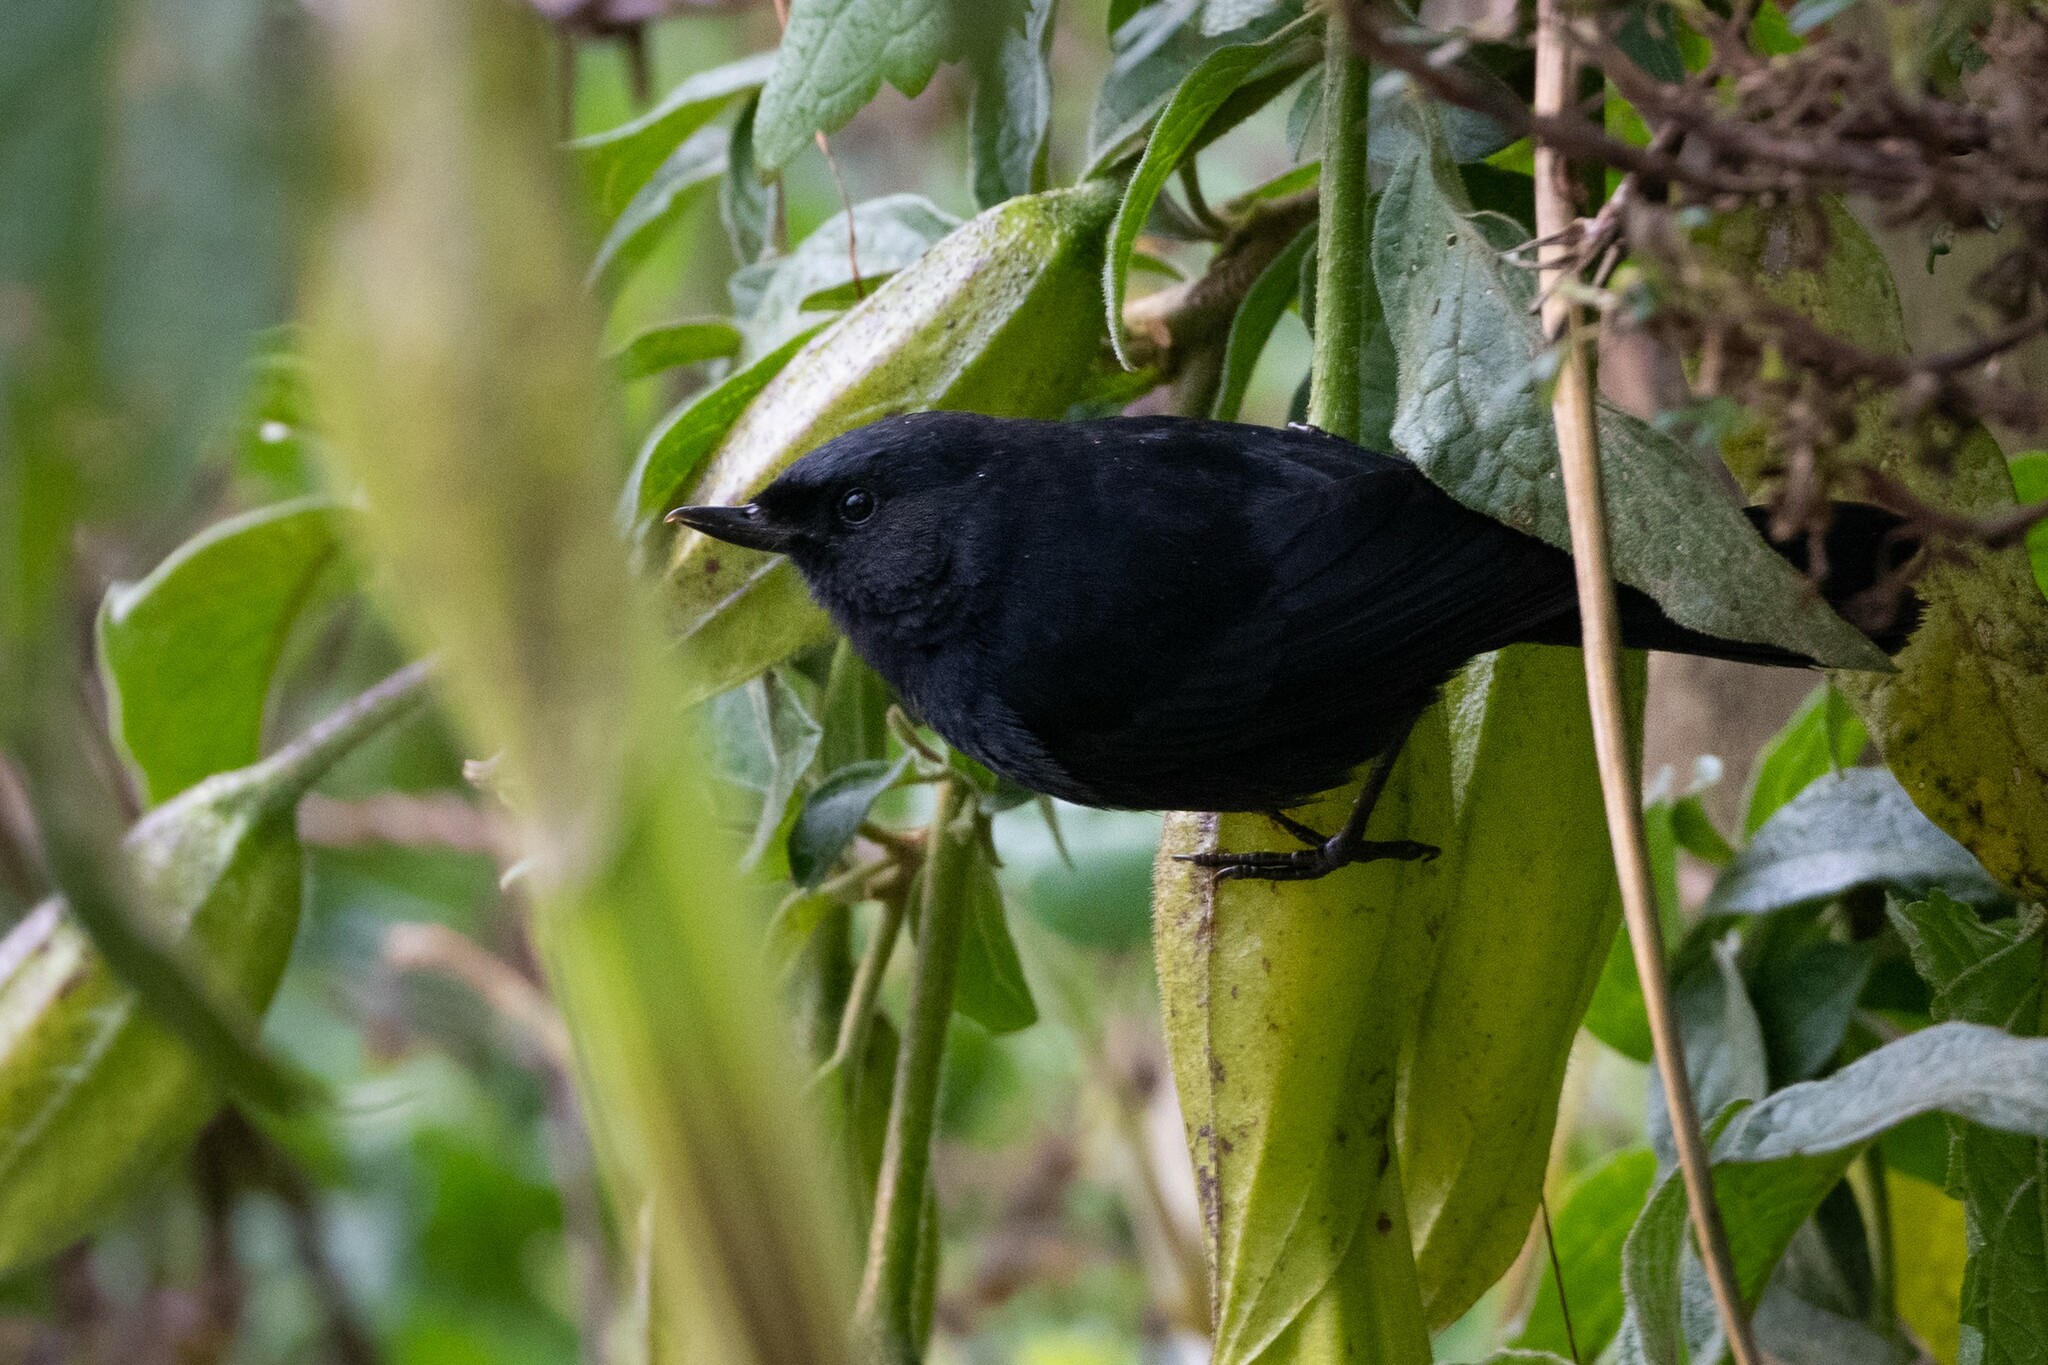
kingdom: Animalia
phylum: Chordata
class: Aves
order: Passeriformes
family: Thraupidae
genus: Diglossa
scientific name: Diglossa humeralis
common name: Black flowerpiercer
